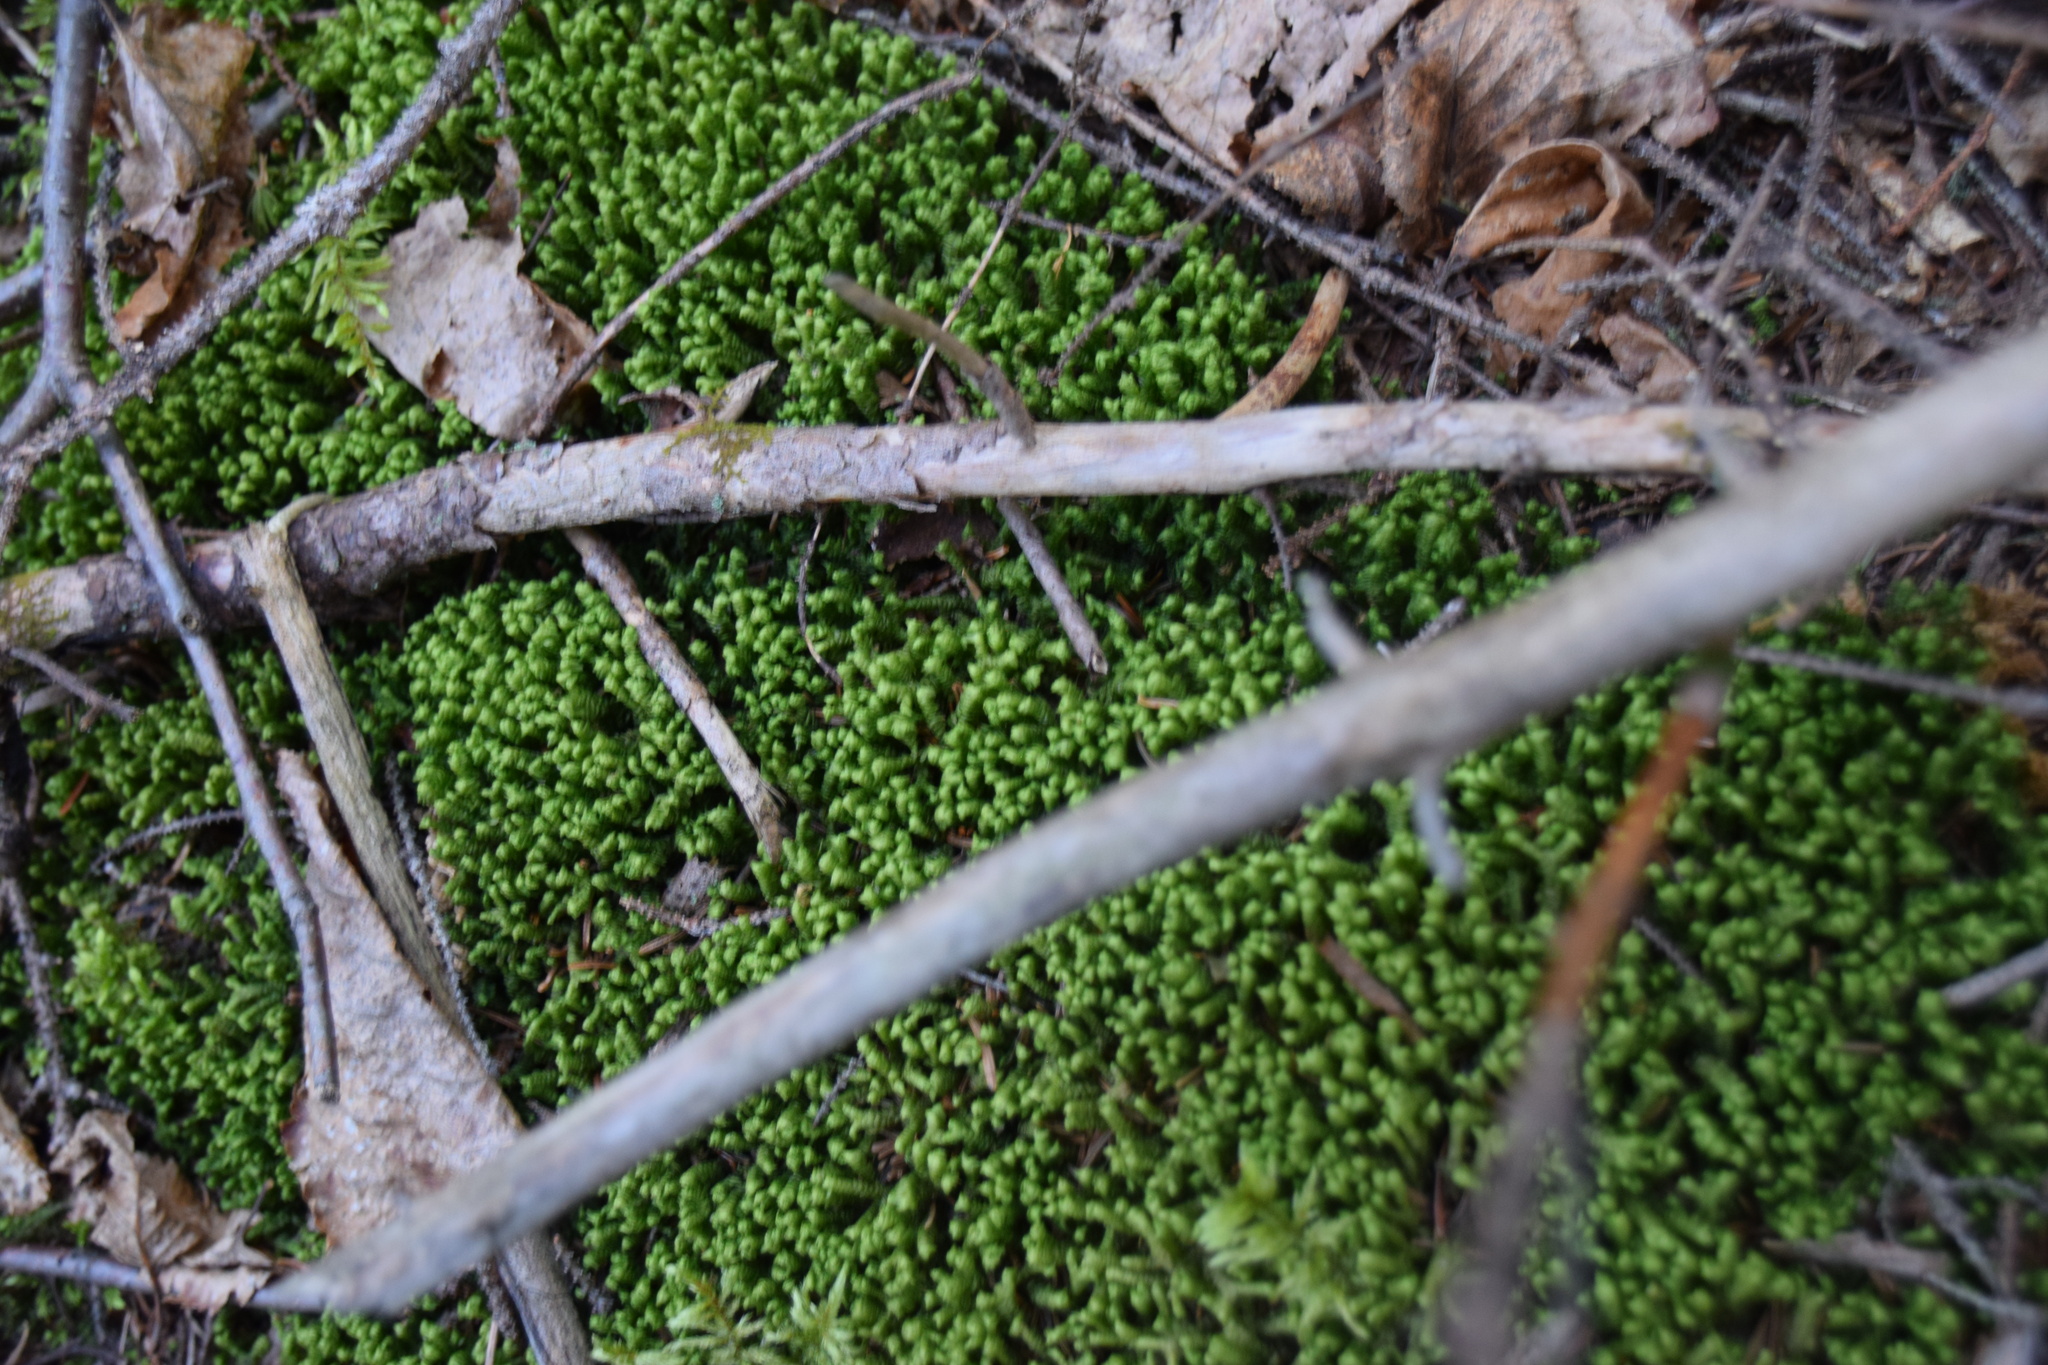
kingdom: Plantae
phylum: Marchantiophyta
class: Jungermanniopsida
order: Jungermanniales
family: Lepidoziaceae
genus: Bazzania
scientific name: Bazzania trilobata
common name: Three-lobed whipwort
